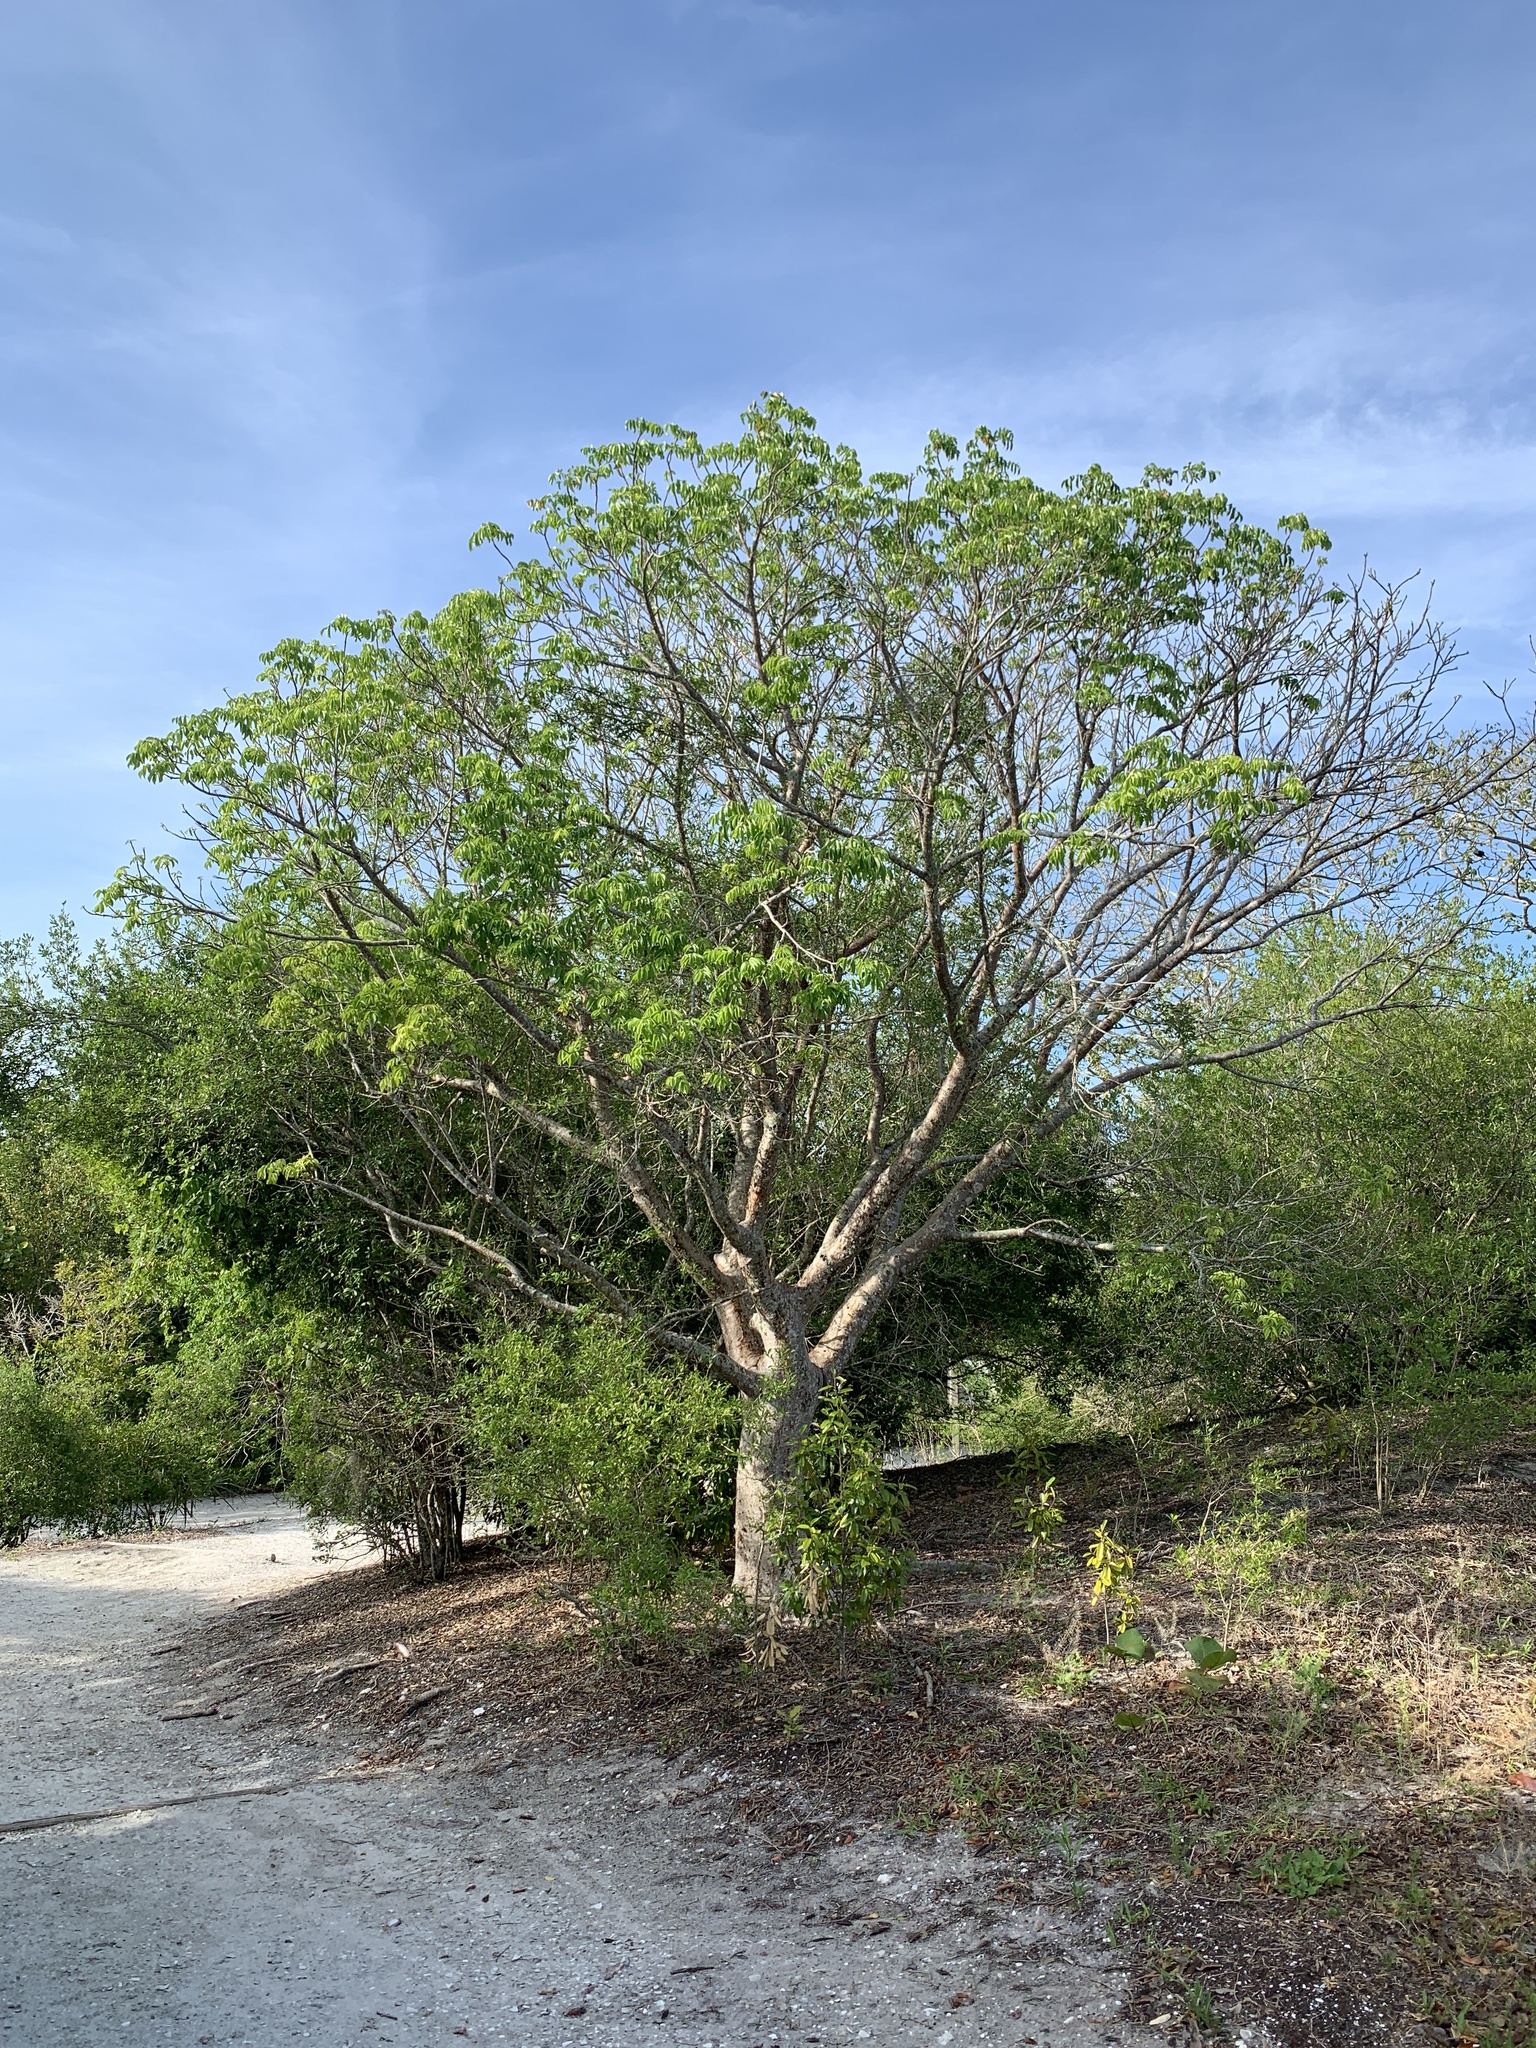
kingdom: Plantae
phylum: Tracheophyta
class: Magnoliopsida
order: Sapindales
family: Burseraceae
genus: Bursera
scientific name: Bursera simaruba
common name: Turpentine tree
